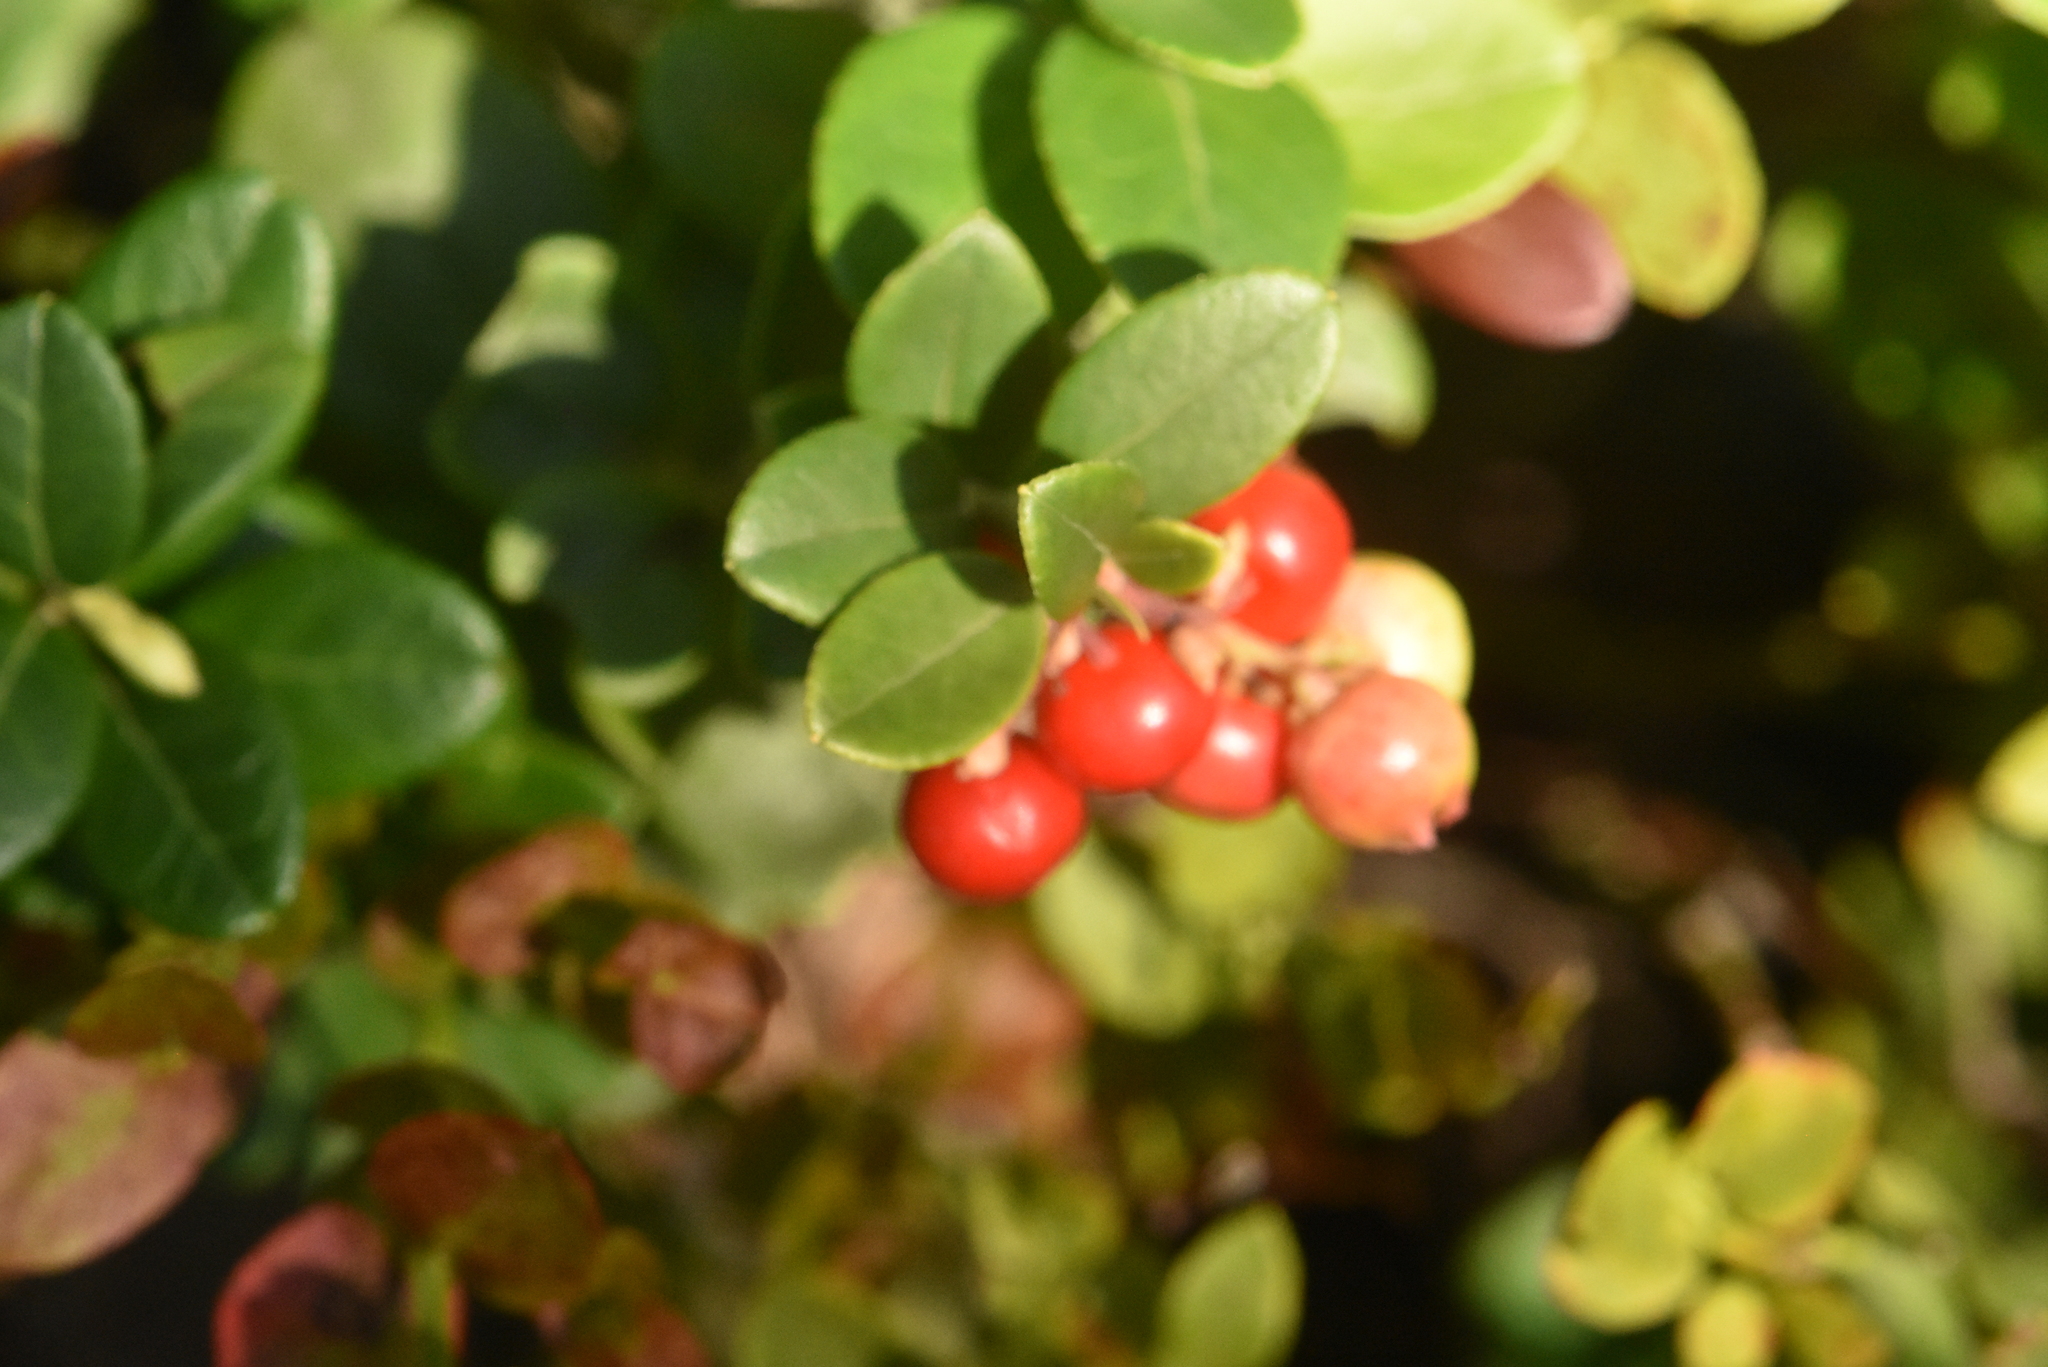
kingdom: Plantae
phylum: Tracheophyta
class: Magnoliopsida
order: Ericales
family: Ericaceae
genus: Vaccinium
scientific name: Vaccinium vitis-idaea
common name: Cowberry
